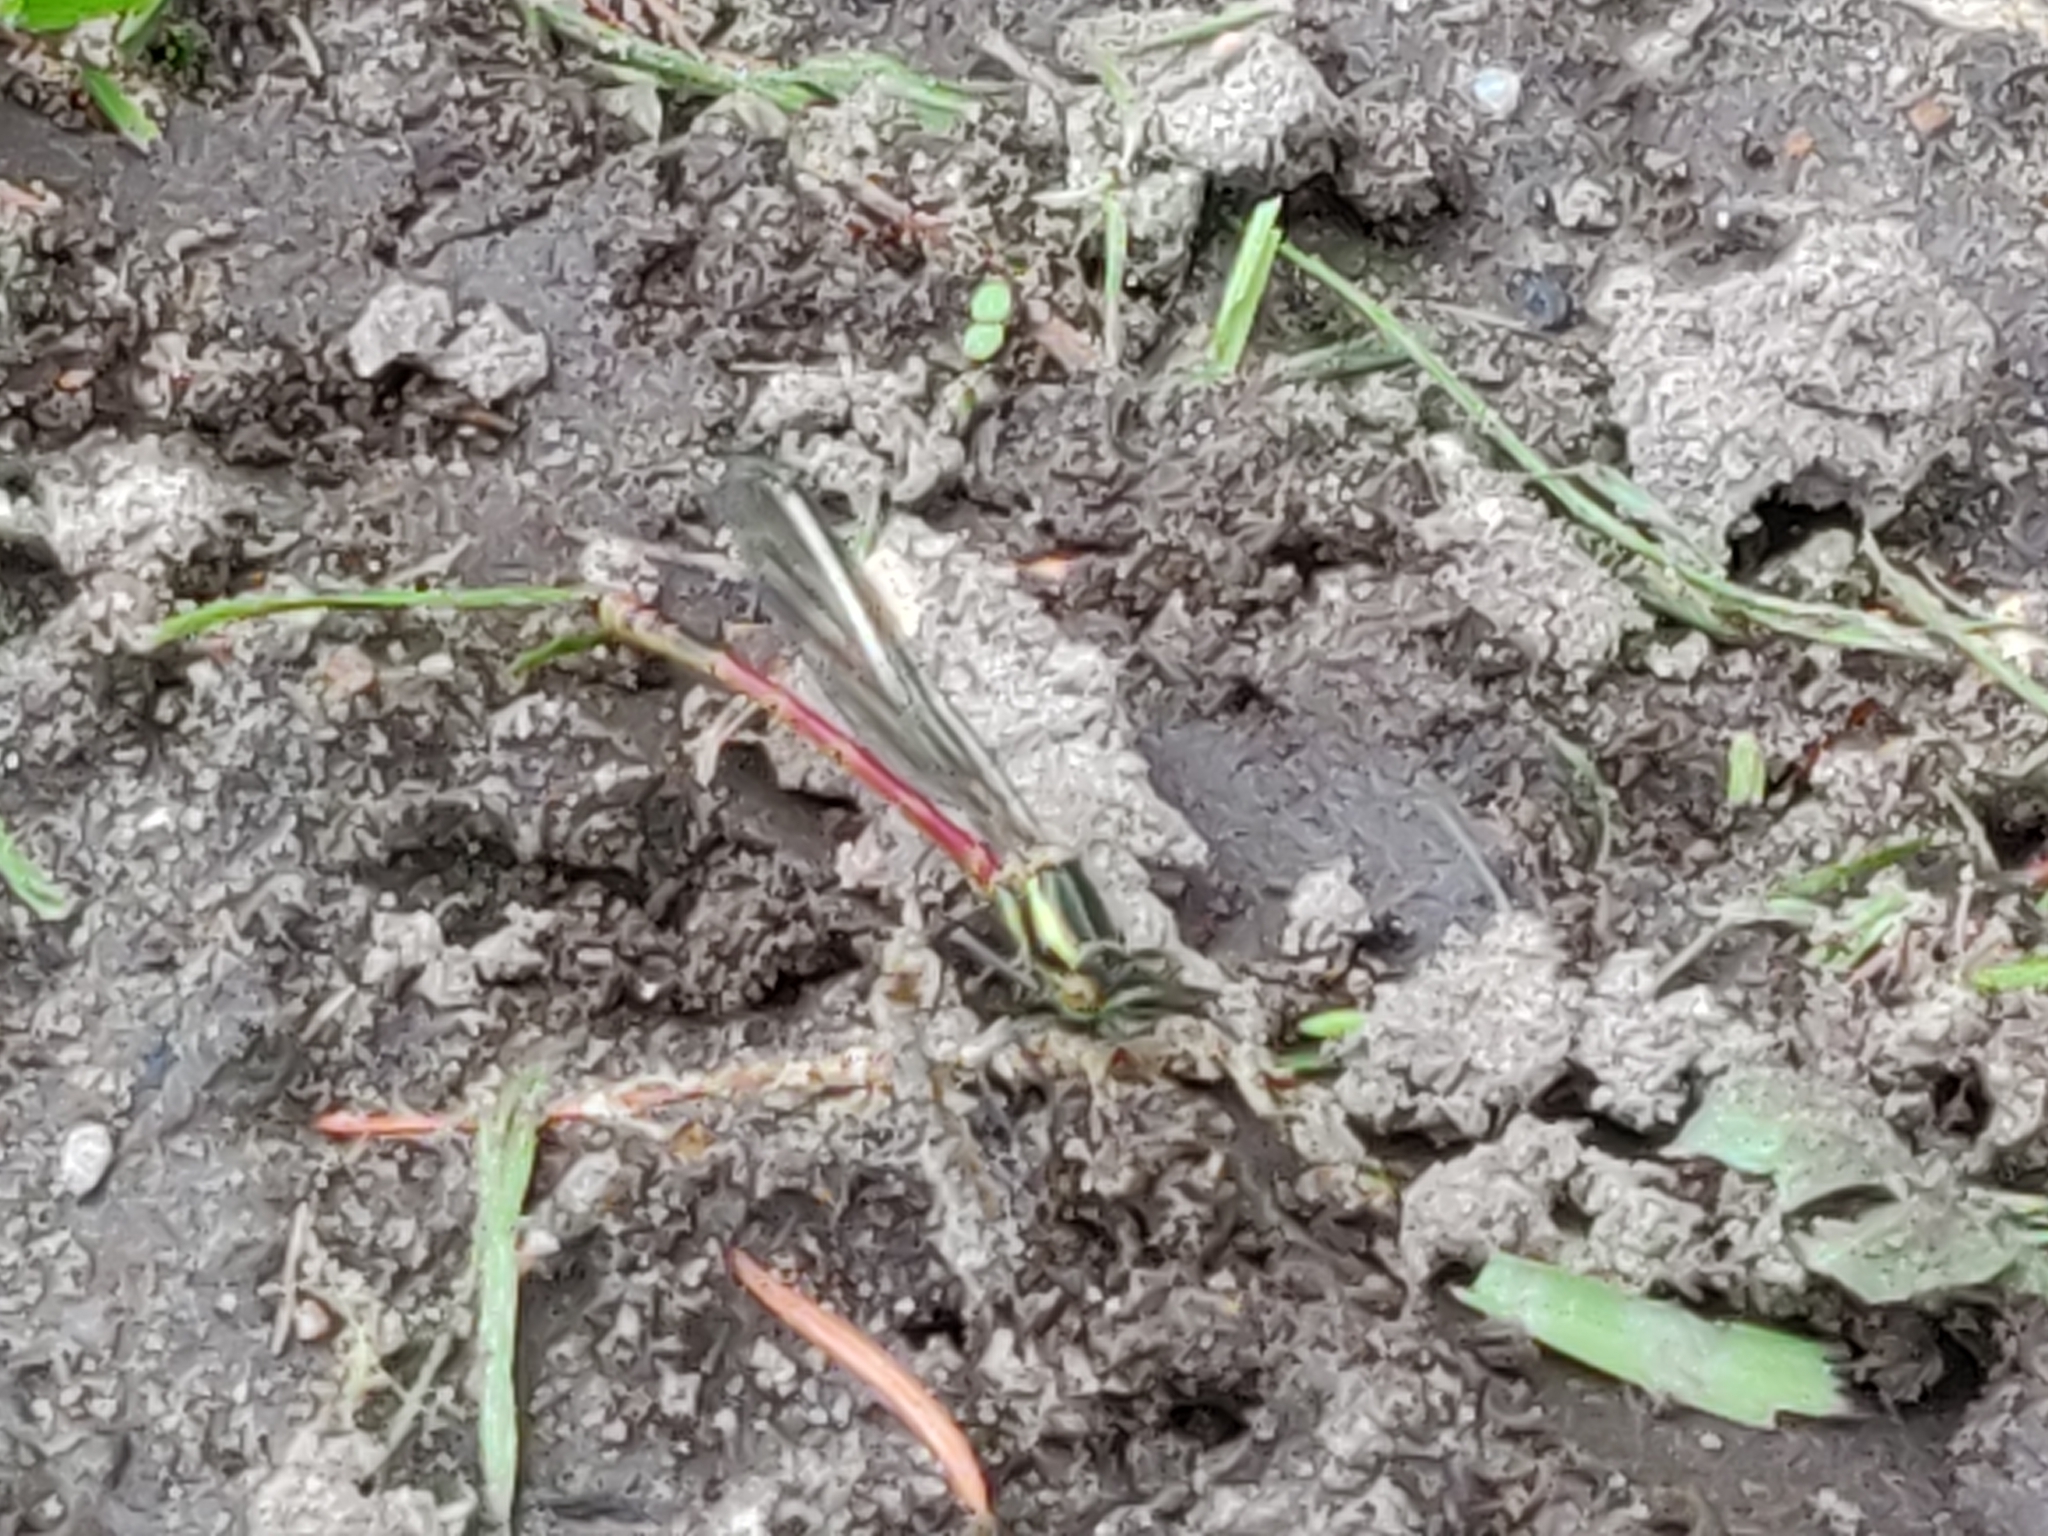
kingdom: Animalia
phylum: Arthropoda
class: Insecta
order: Odonata
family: Coenagrionidae
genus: Pyrrhosoma
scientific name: Pyrrhosoma nymphula
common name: Large red damsel
